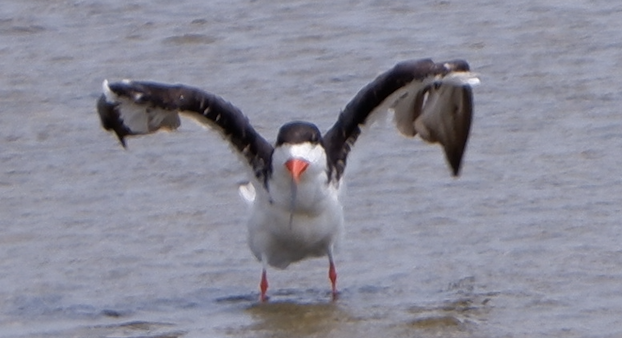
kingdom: Animalia
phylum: Chordata
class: Aves
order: Charadriiformes
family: Laridae
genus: Rynchops
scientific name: Rynchops niger
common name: Black skimmer
